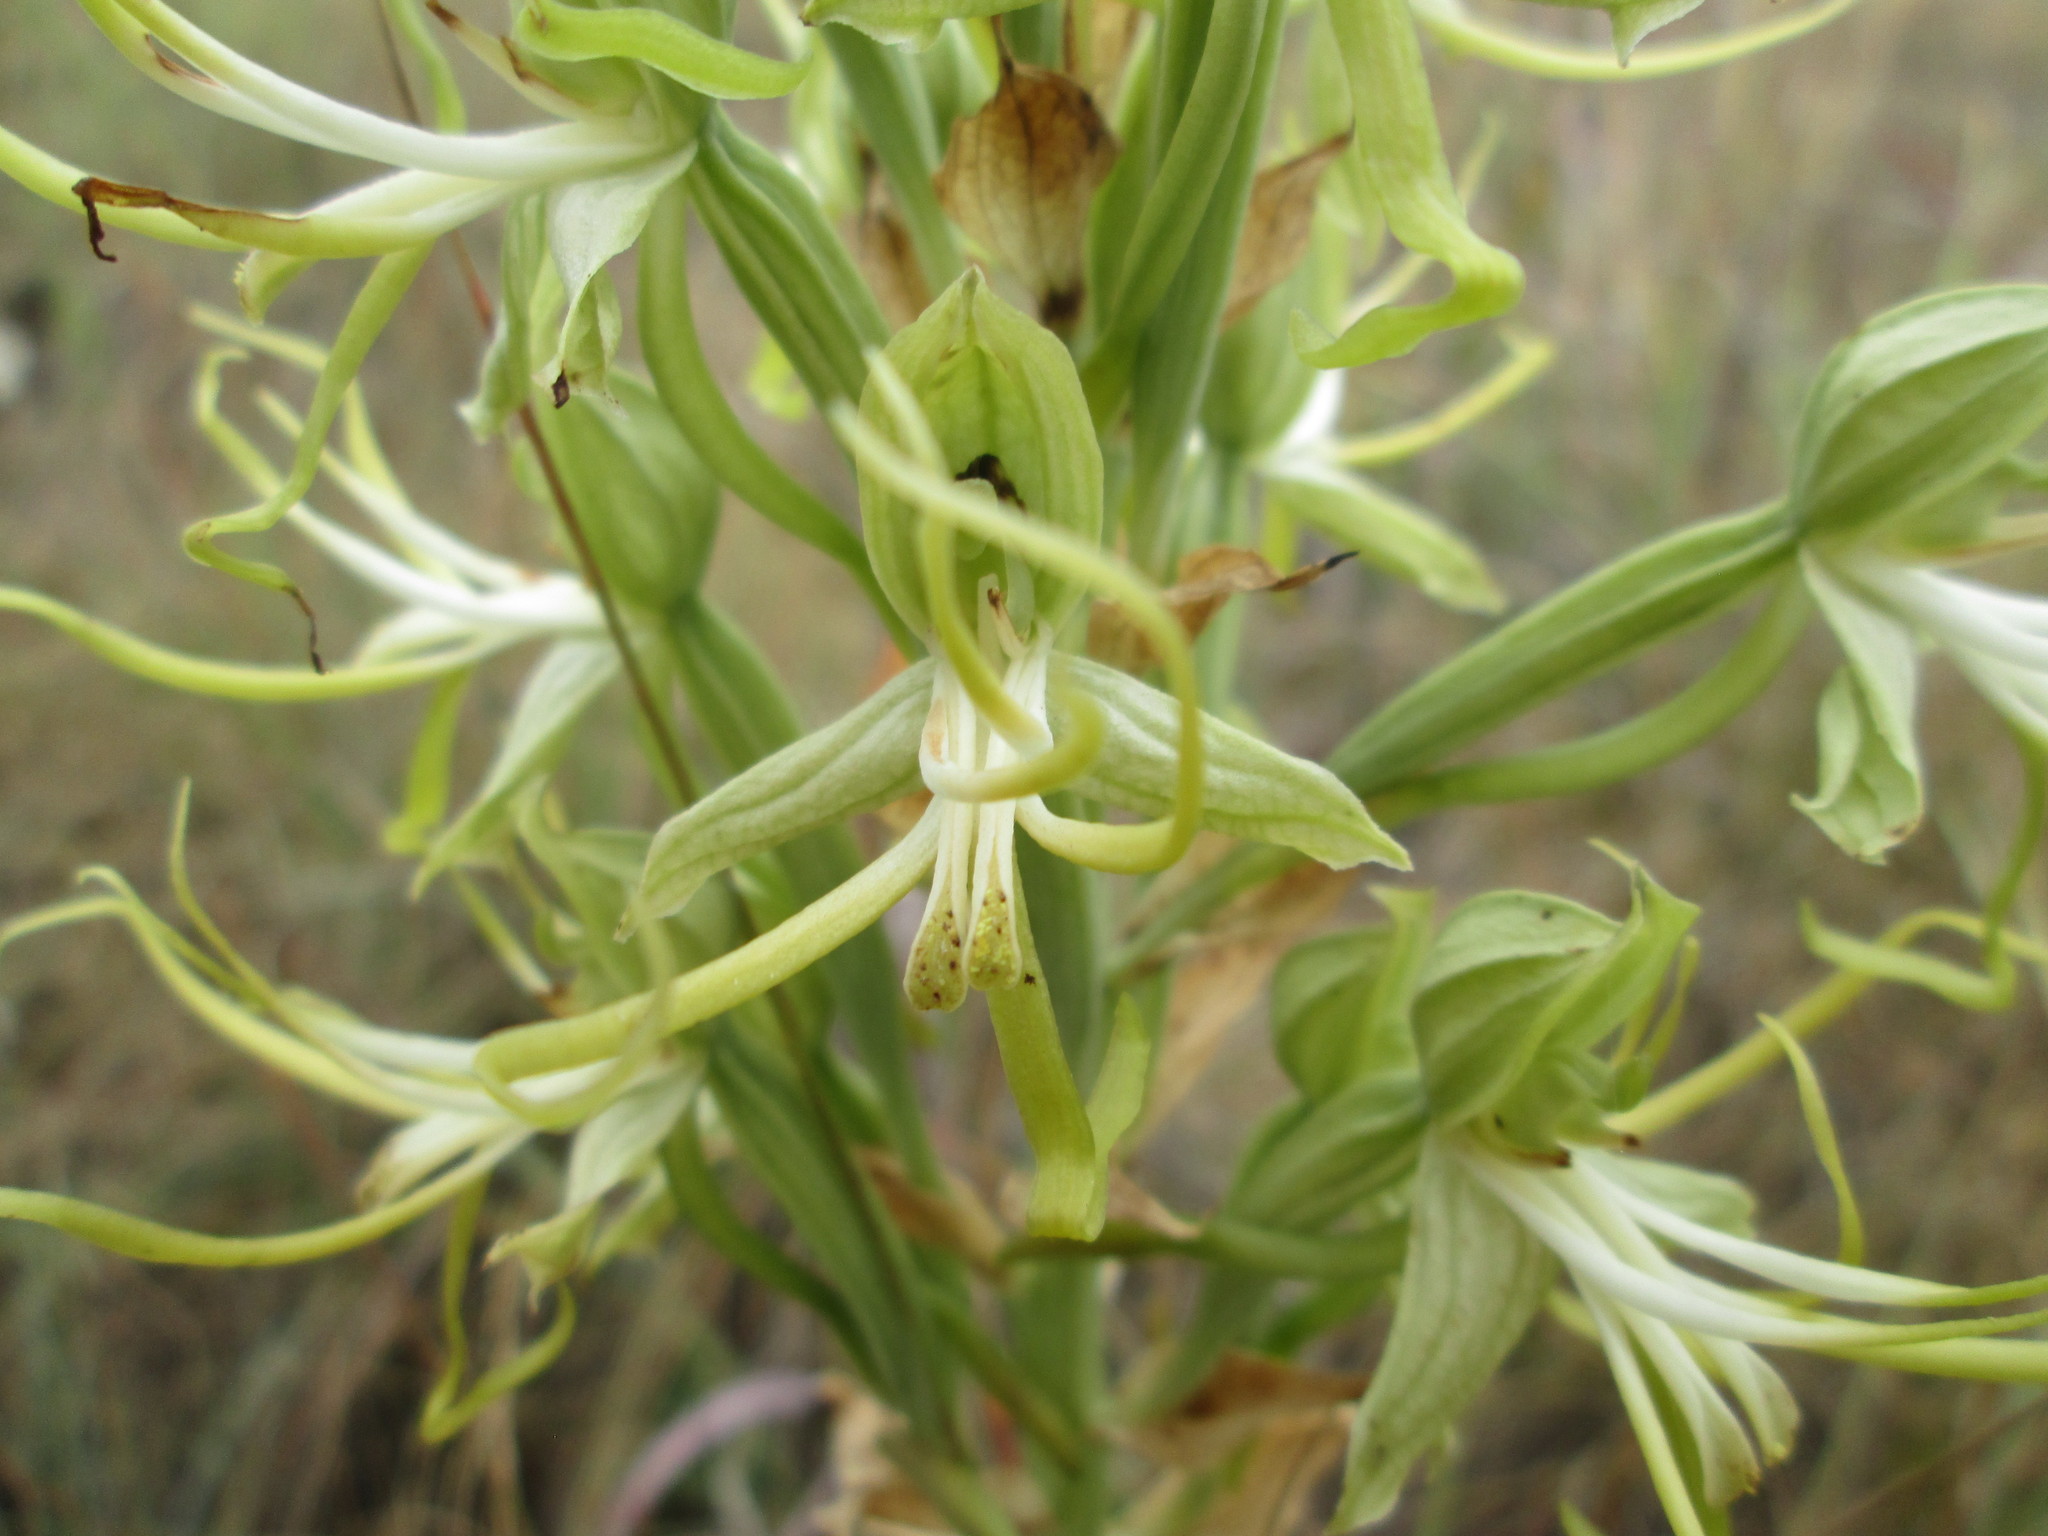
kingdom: Plantae
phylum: Tracheophyta
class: Liliopsida
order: Asparagales
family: Orchidaceae
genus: Bonatea
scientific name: Bonatea antennifera
